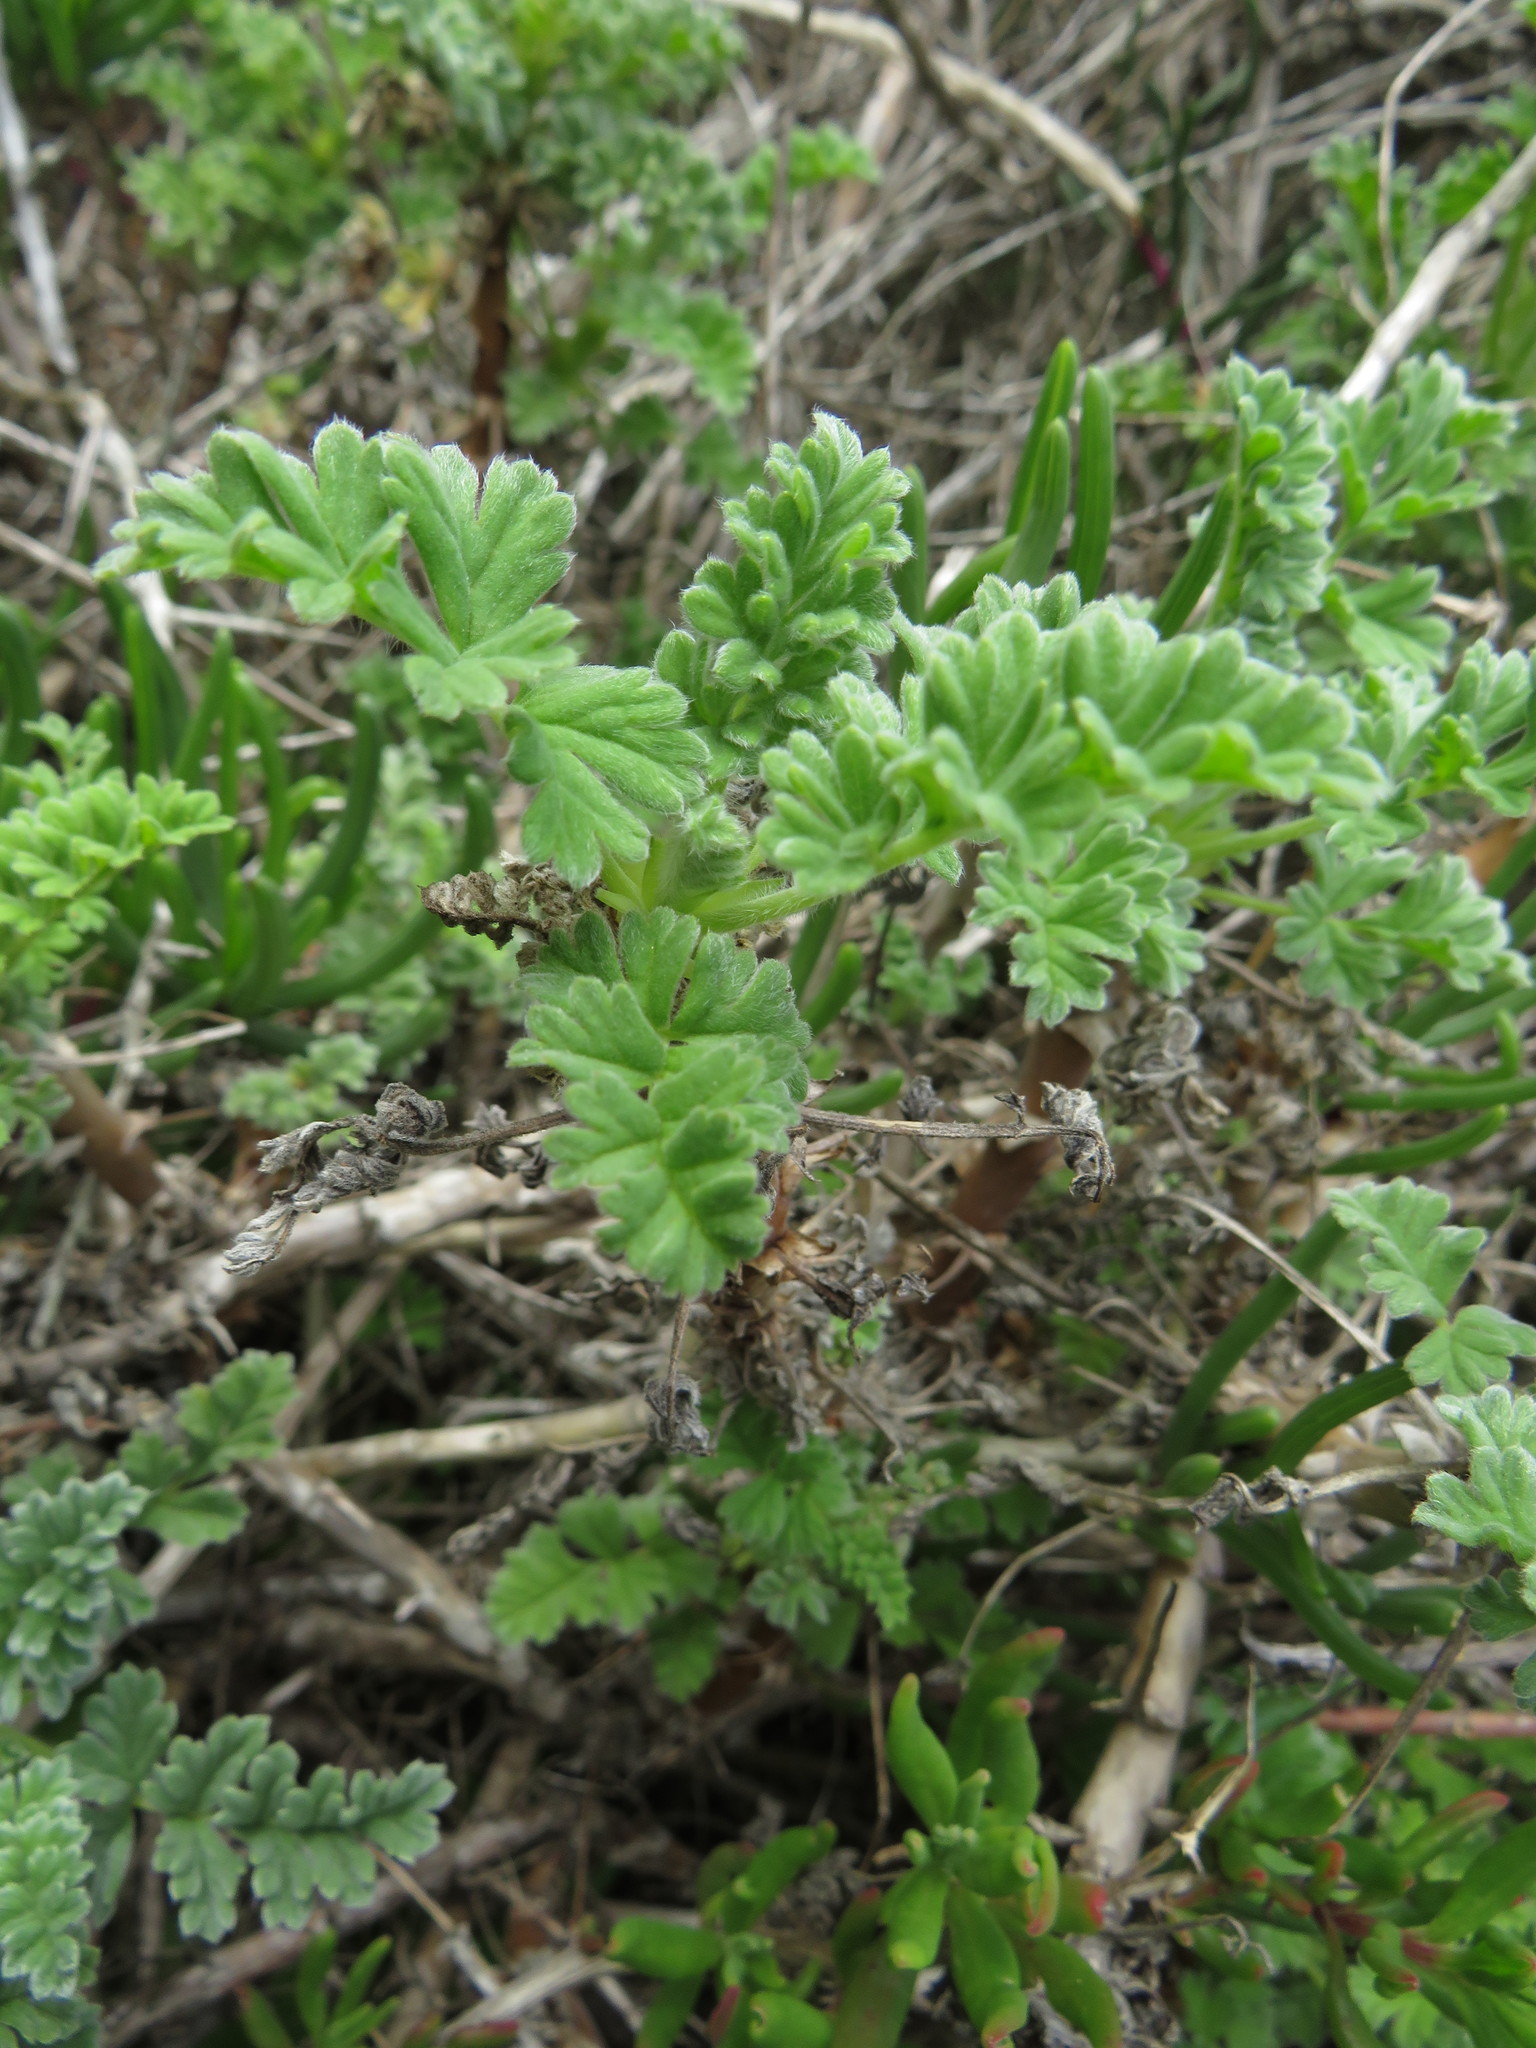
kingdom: Plantae
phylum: Tracheophyta
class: Magnoliopsida
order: Geraniales
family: Geraniaceae
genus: Pelargonium
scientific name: Pelargonium fulgidum
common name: Celandine-leaf pelargonium
